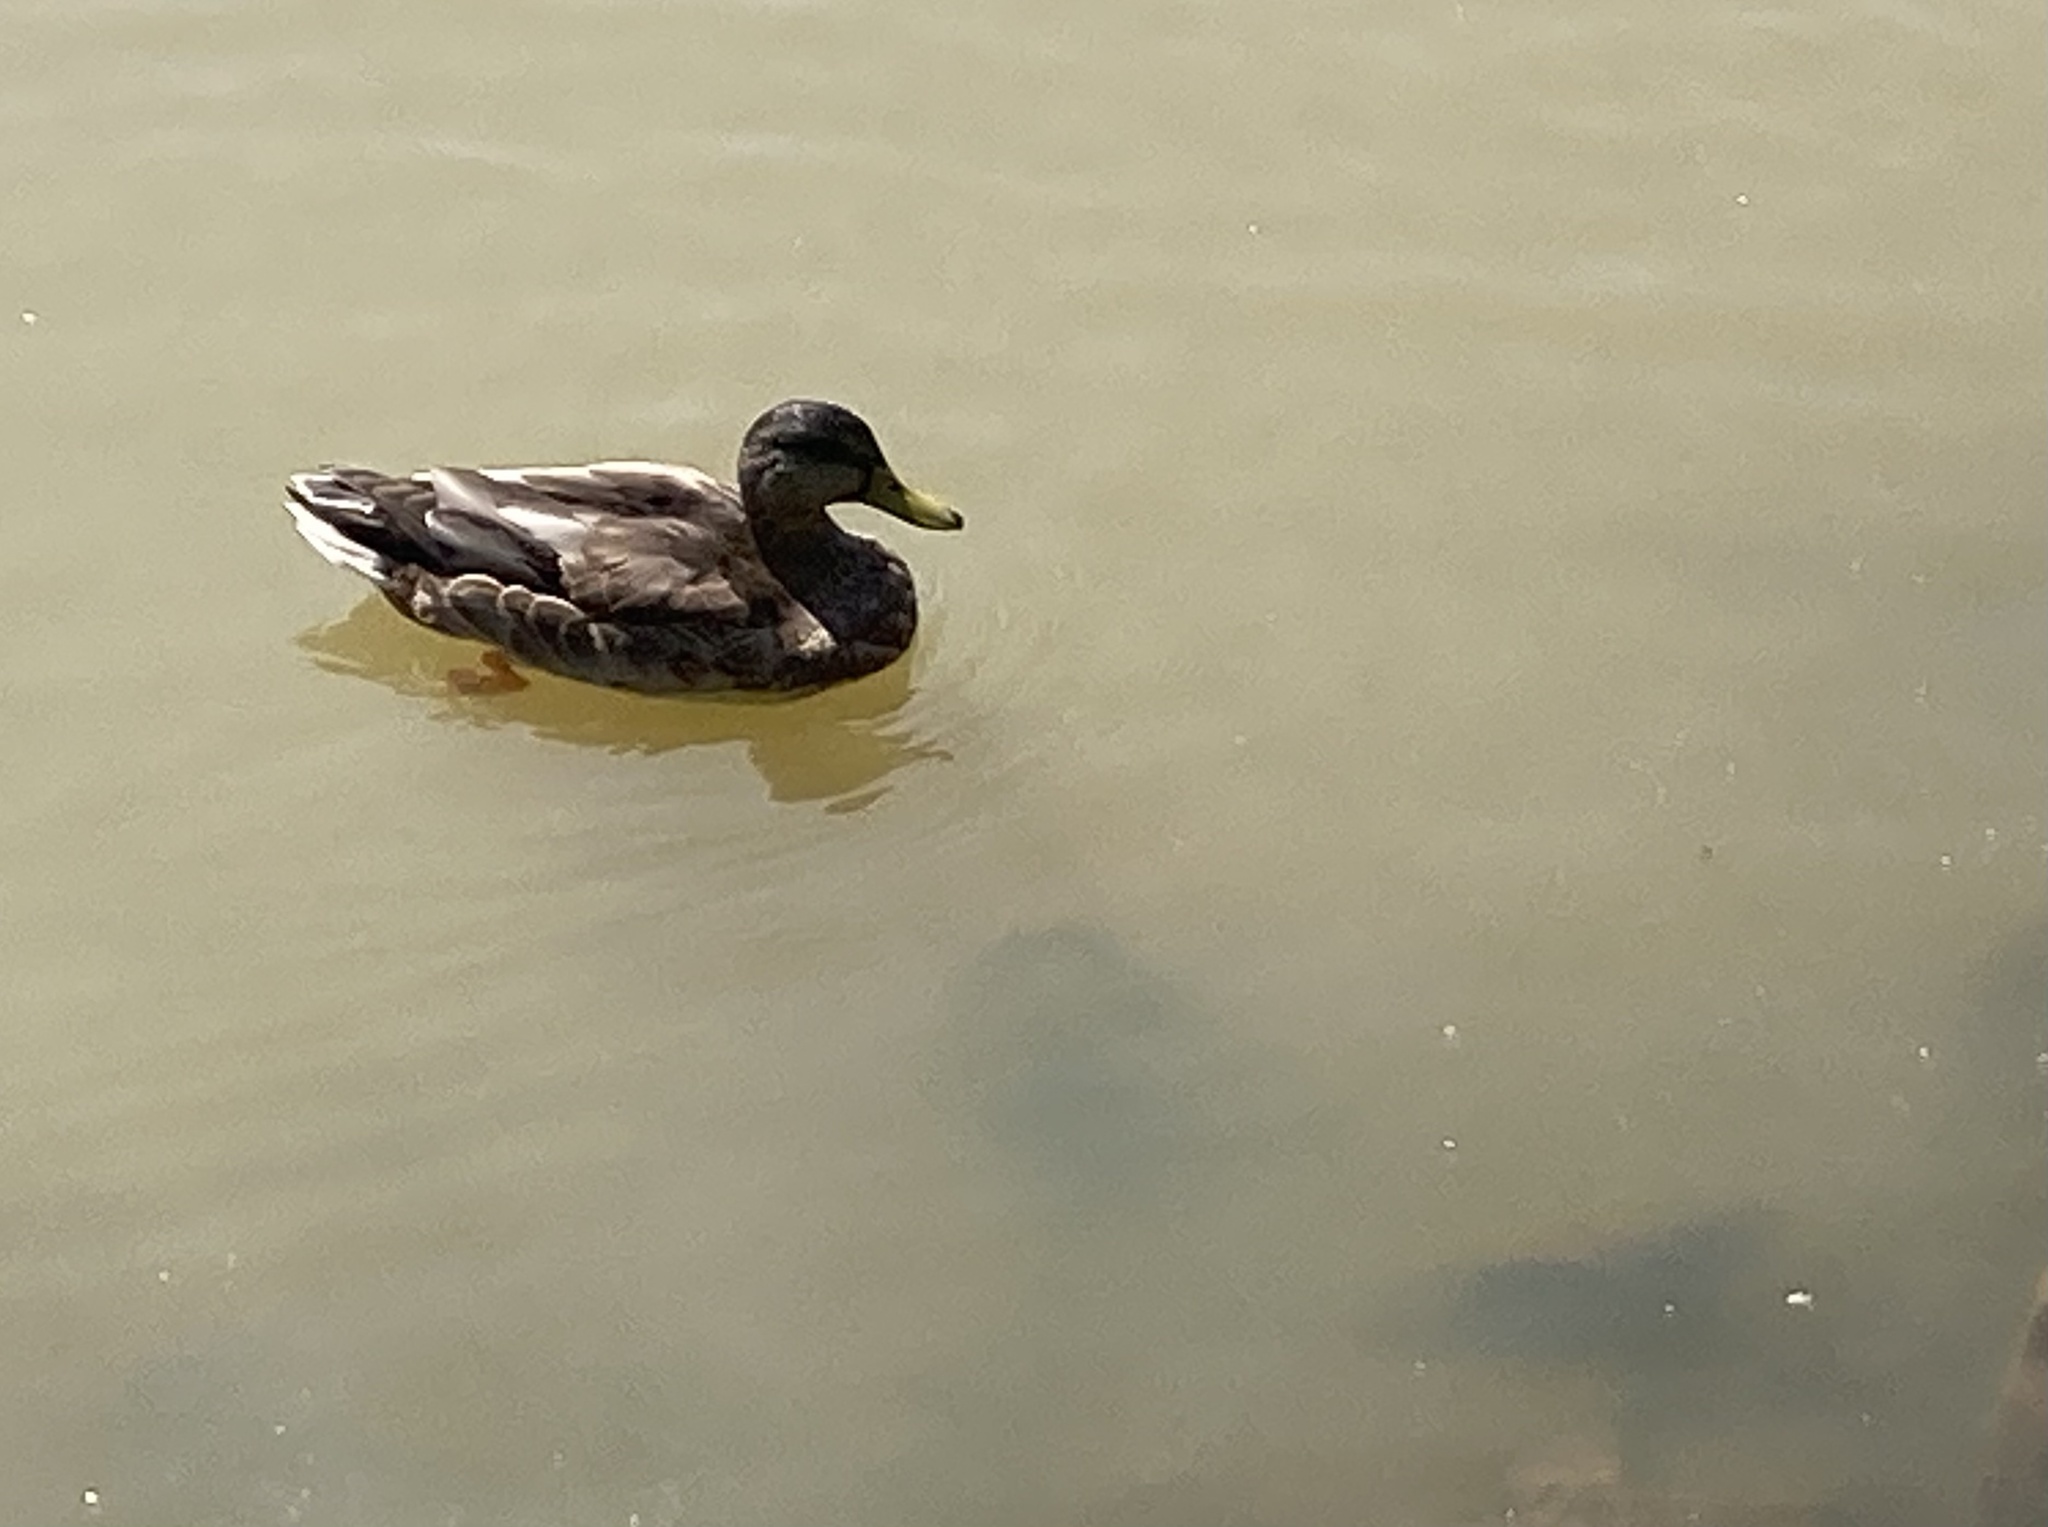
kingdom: Animalia
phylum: Chordata
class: Aves
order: Anseriformes
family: Anatidae
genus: Anas
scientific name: Anas platyrhynchos
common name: Mallard
